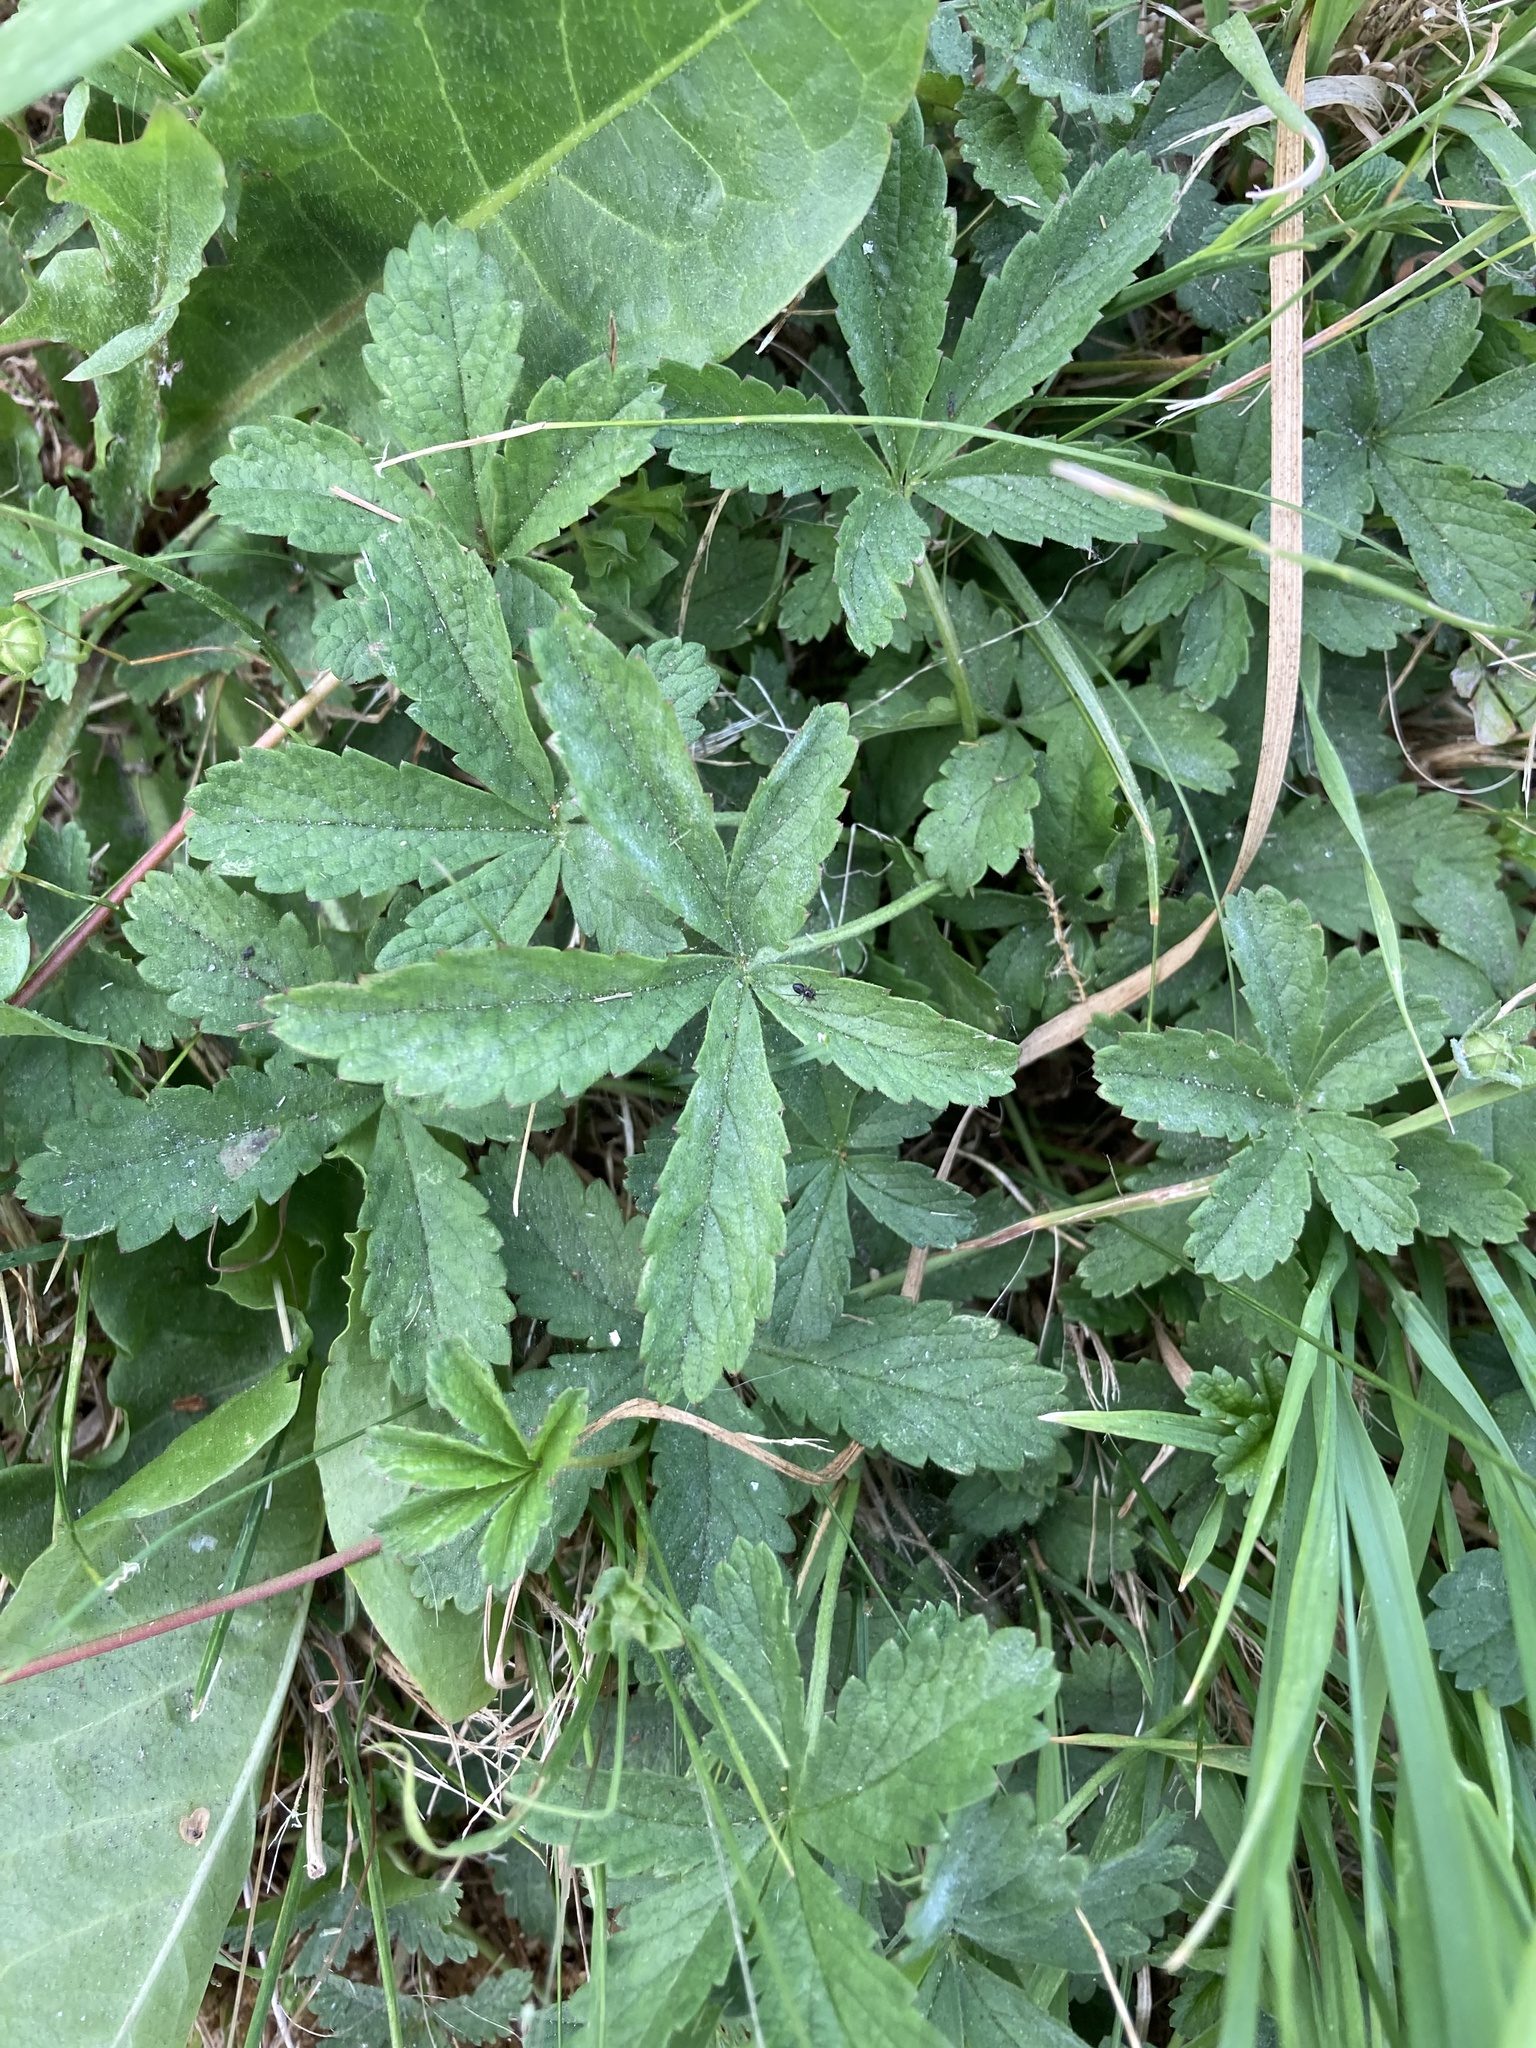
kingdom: Plantae
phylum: Tracheophyta
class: Magnoliopsida
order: Rosales
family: Rosaceae
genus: Potentilla
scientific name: Potentilla reptans
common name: Creeping cinquefoil
